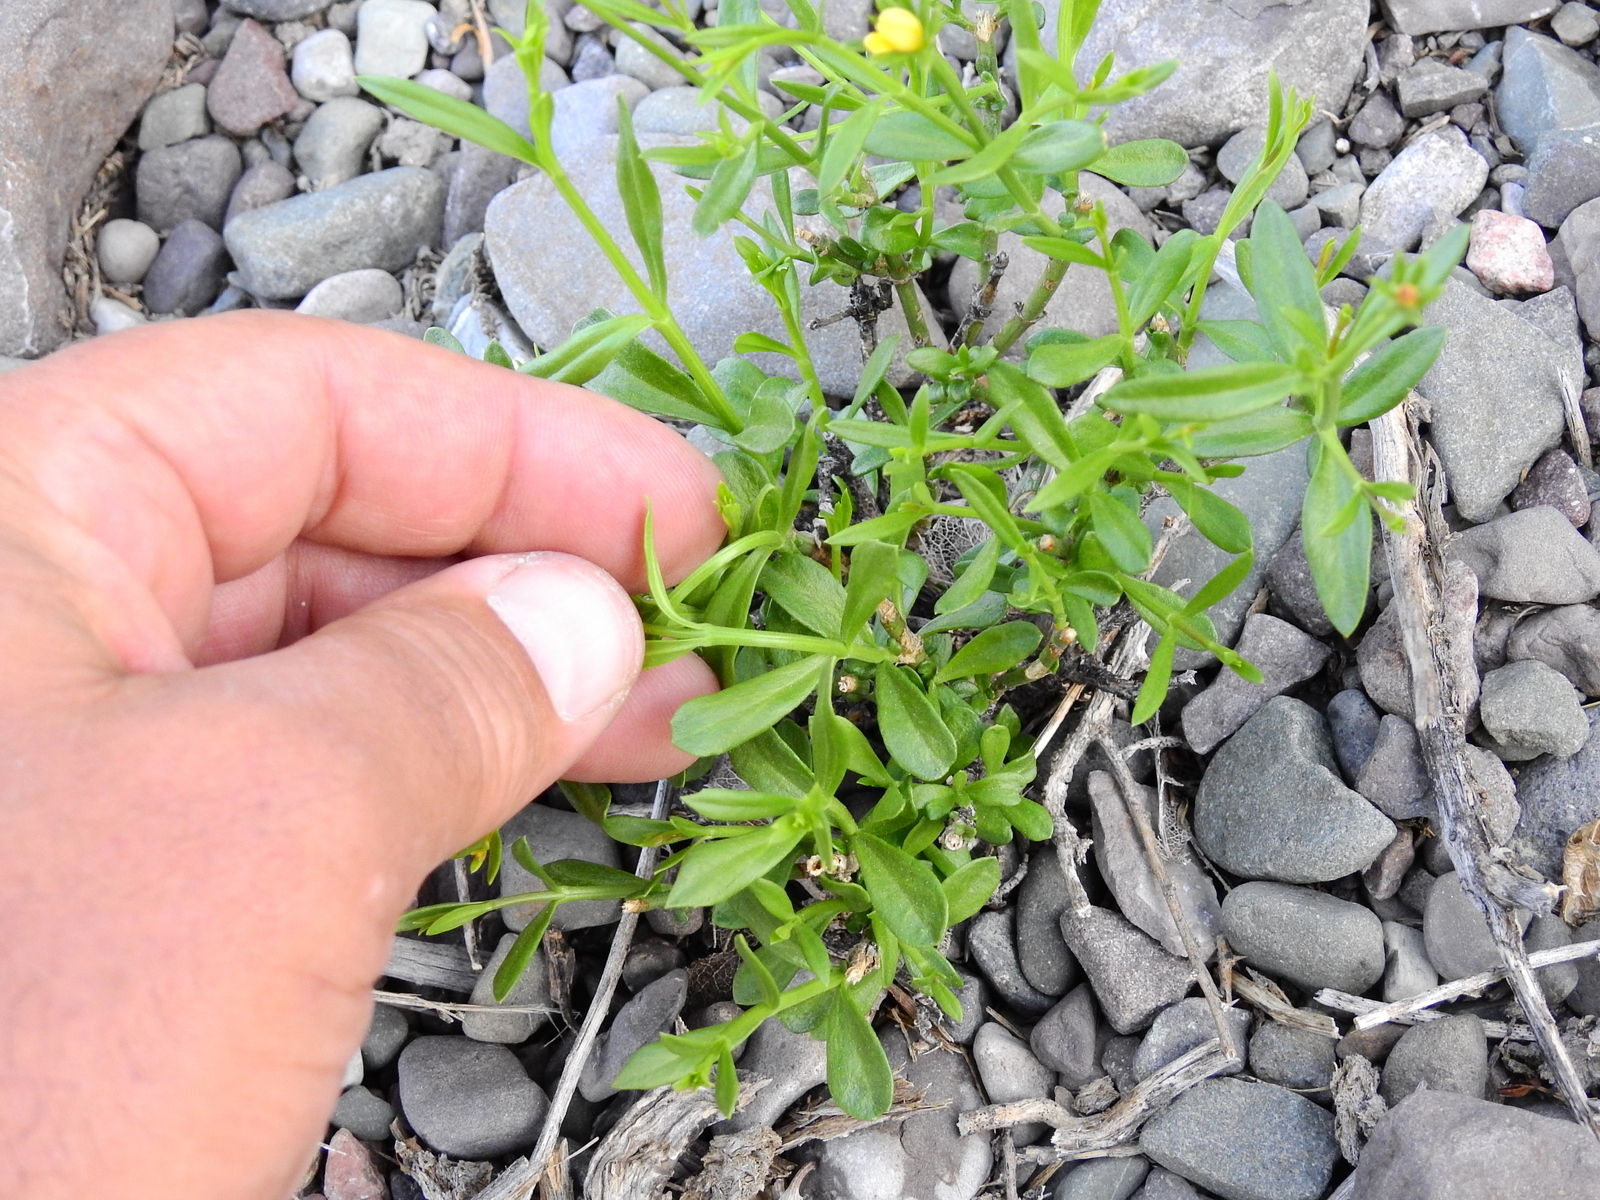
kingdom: Plantae
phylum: Tracheophyta
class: Magnoliopsida
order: Lamiales
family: Oleaceae
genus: Menodora
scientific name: Menodora decemfida
